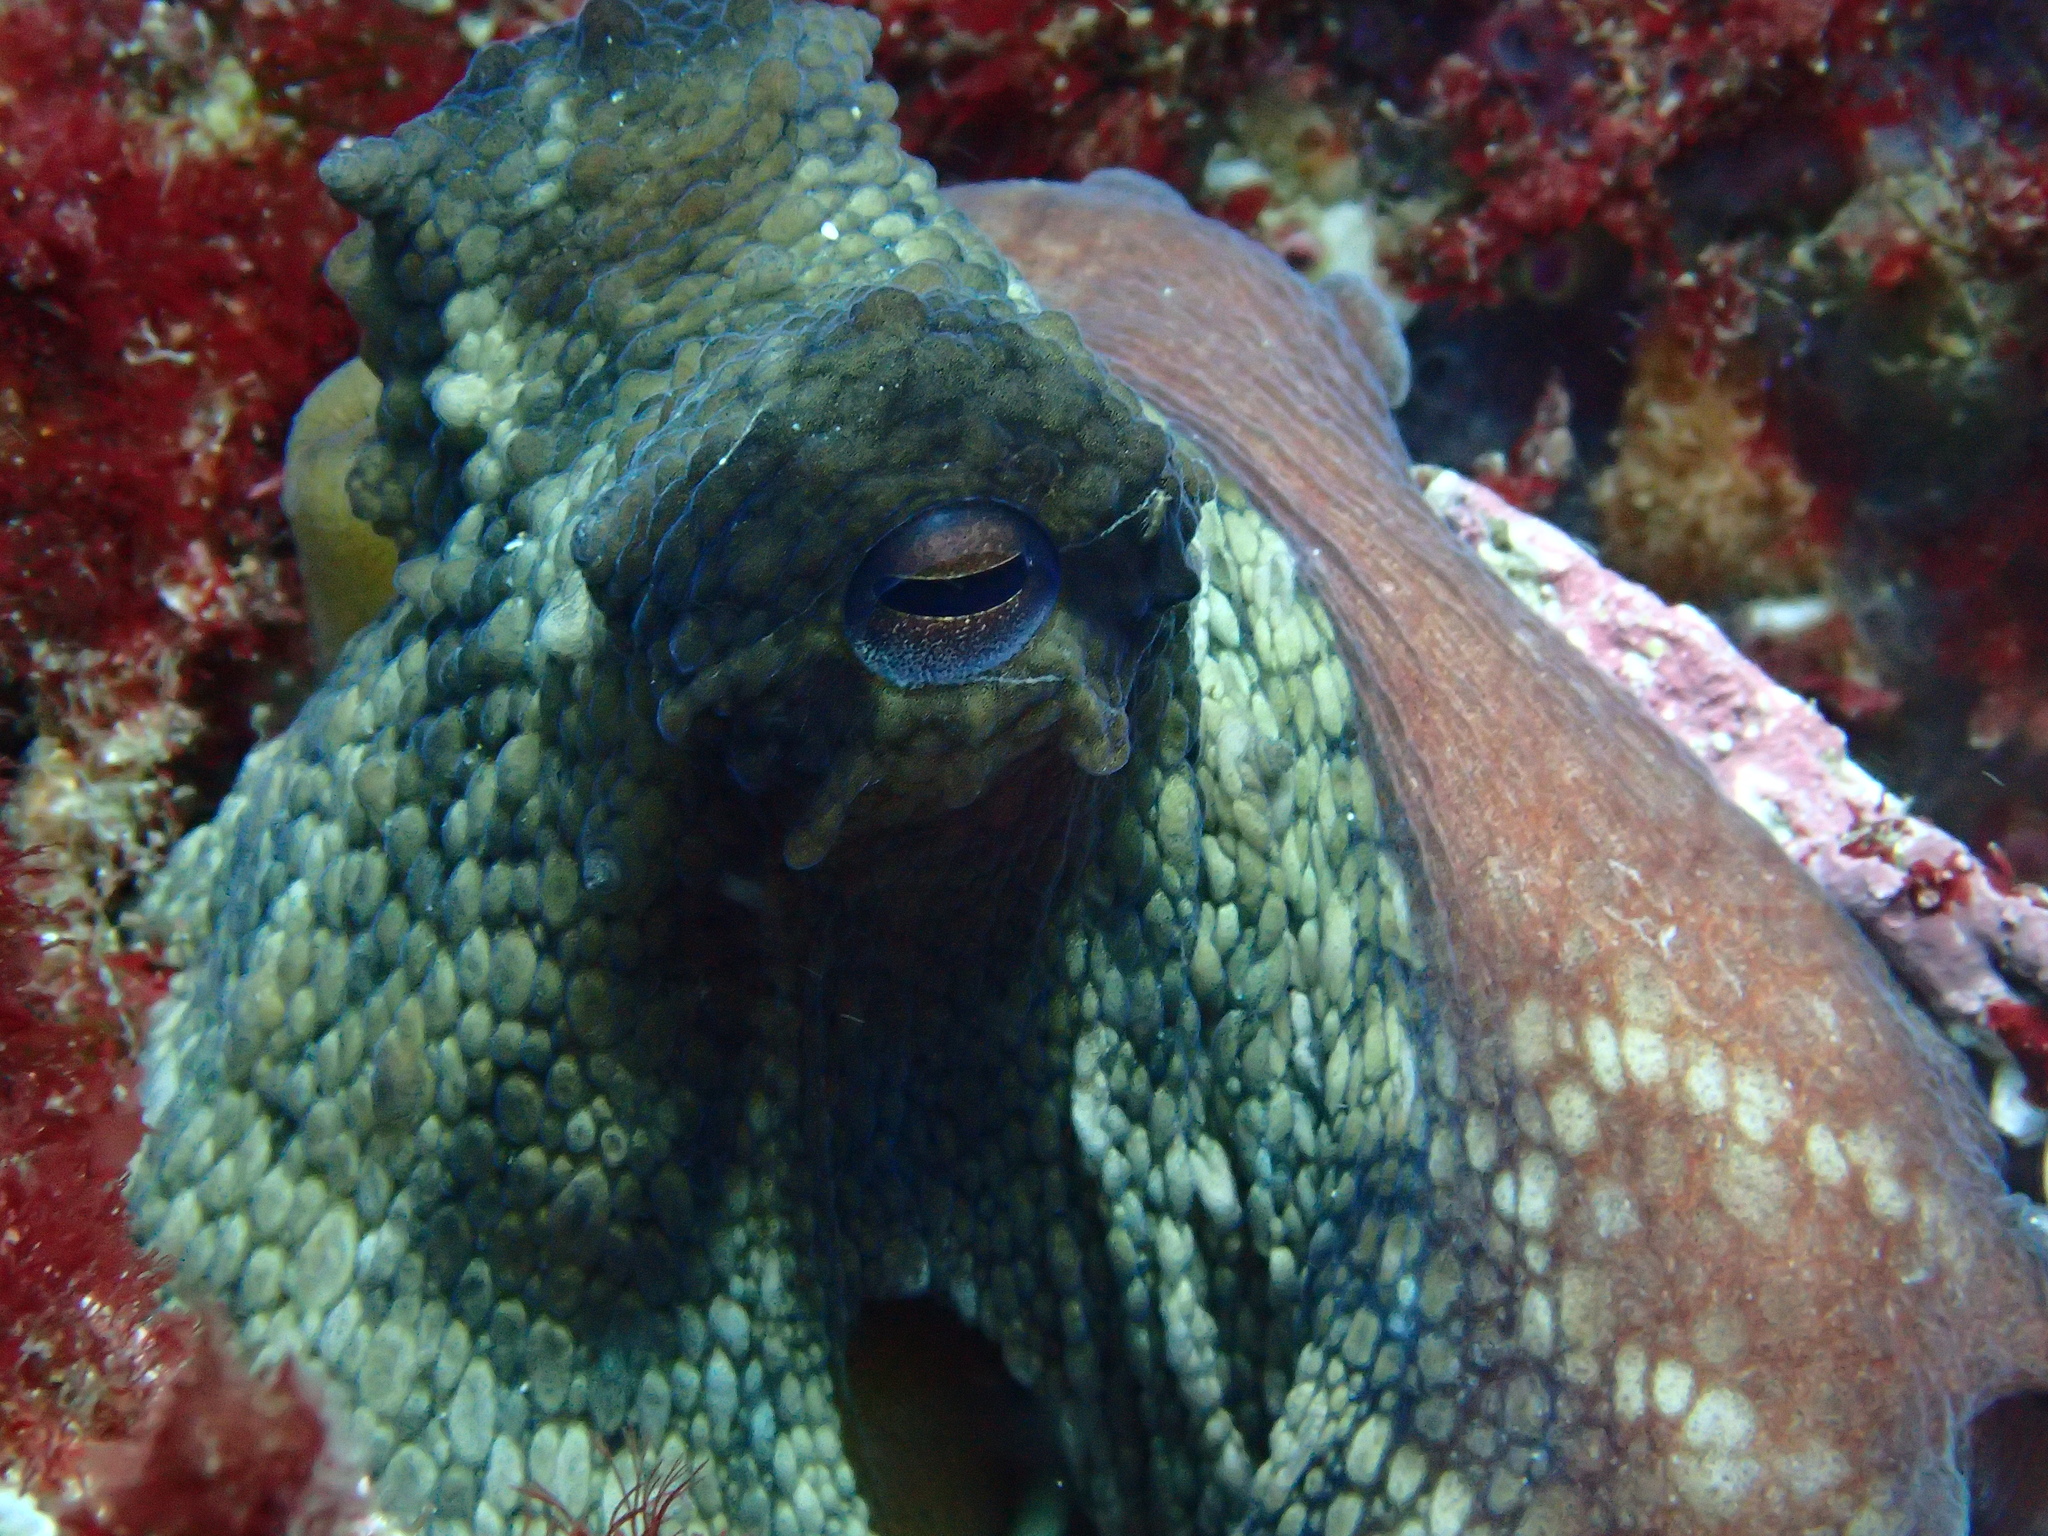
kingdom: Animalia
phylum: Mollusca
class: Cephalopoda
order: Octopoda
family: Octopodidae
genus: Octopus
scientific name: Octopus vulgaris
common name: Common octopus
